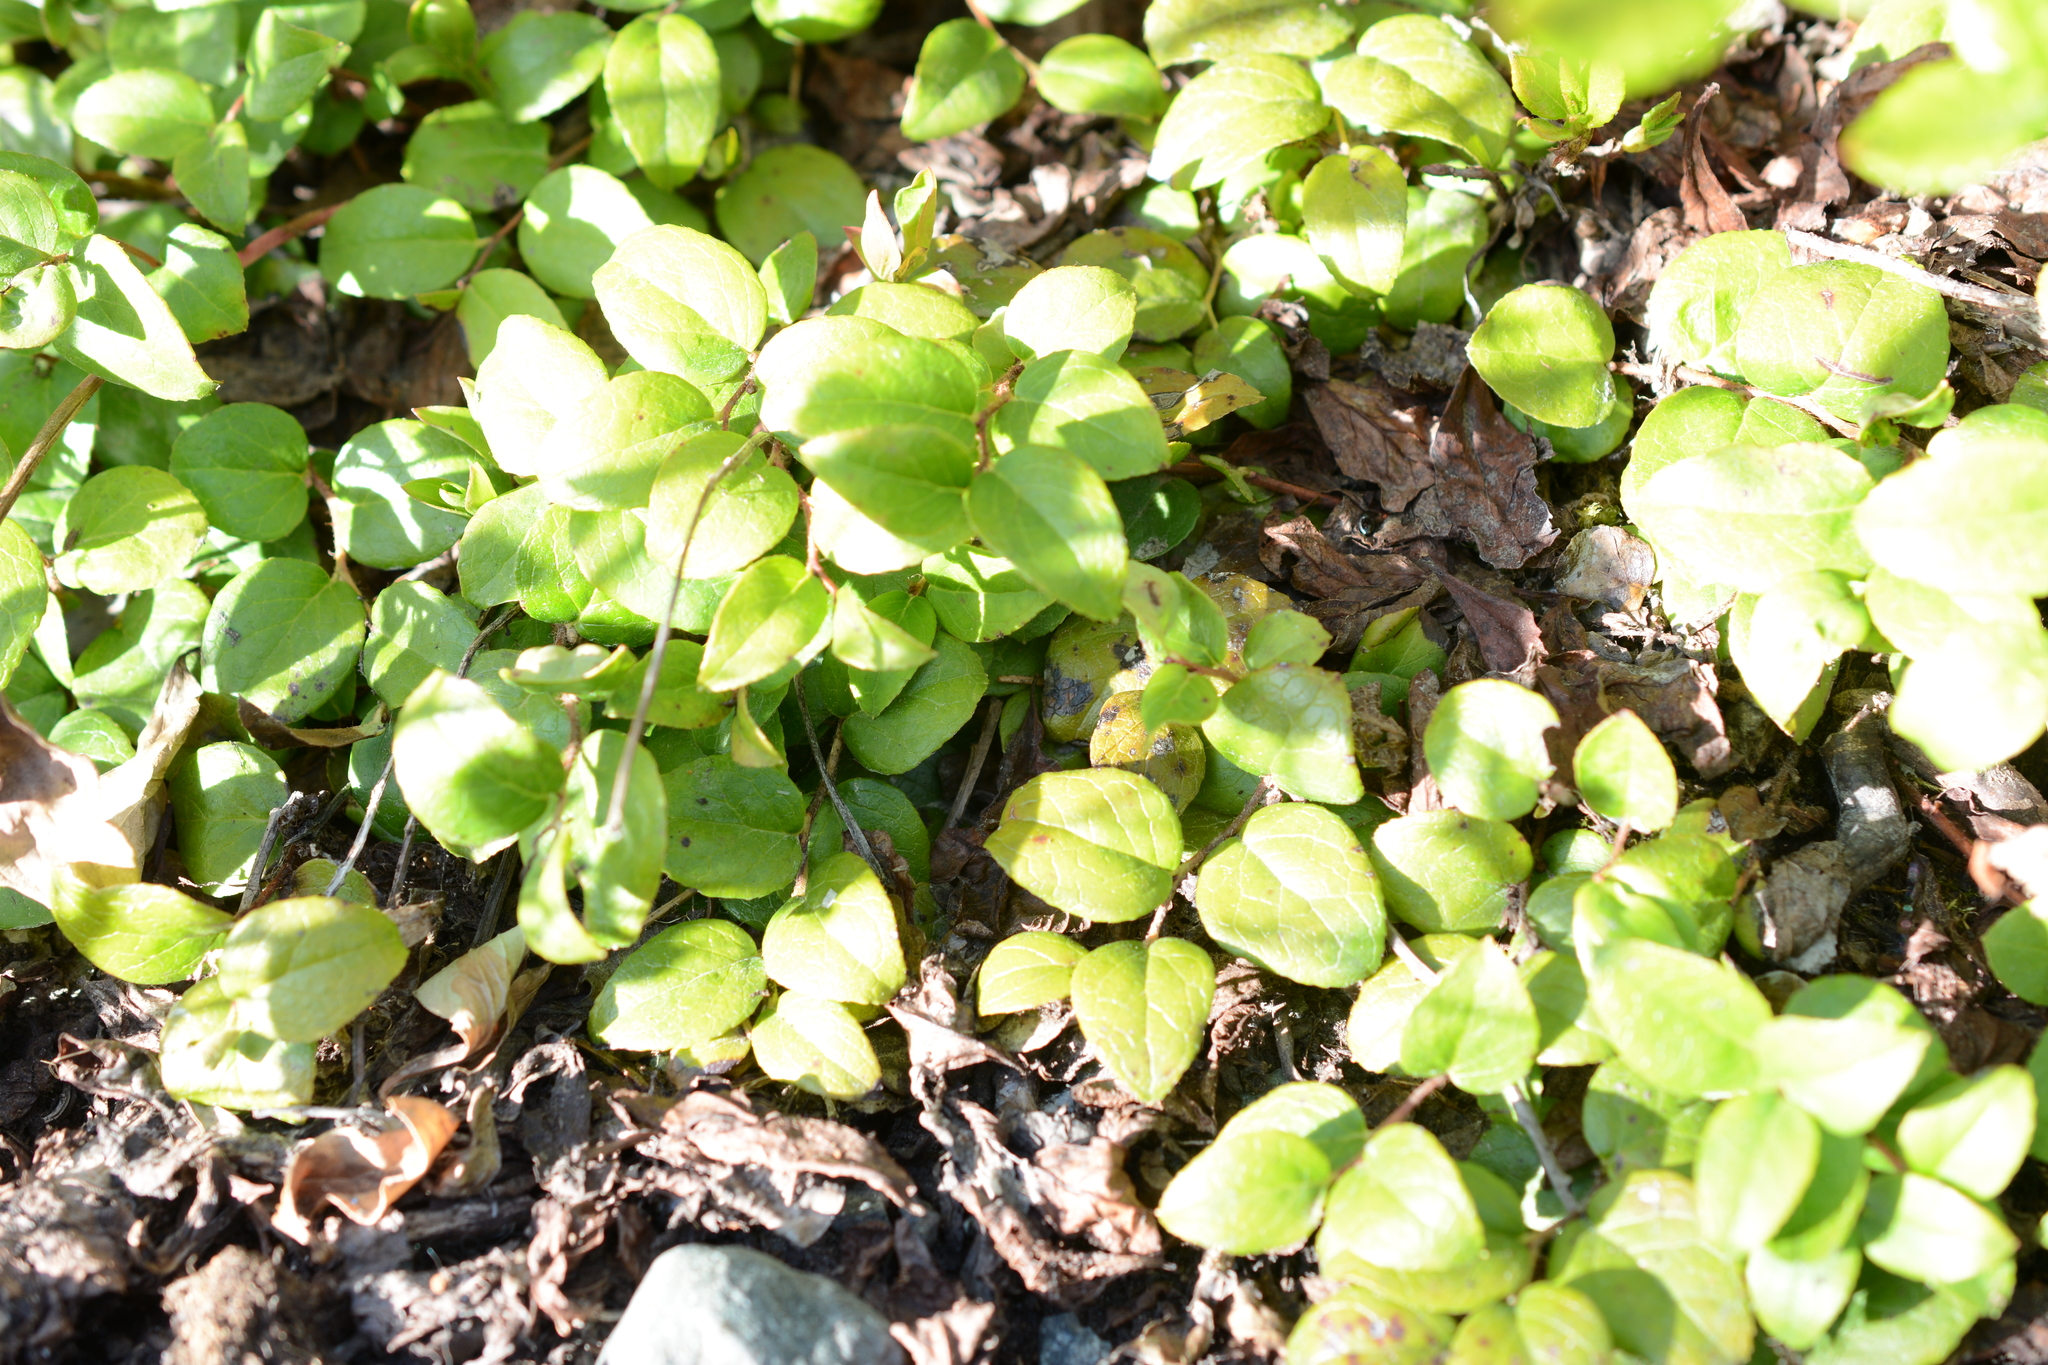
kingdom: Plantae
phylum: Tracheophyta
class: Magnoliopsida
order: Ericales
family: Ericaceae
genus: Gaultheria
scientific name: Gaultheria ovatifolia
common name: Oregon wintergreen
